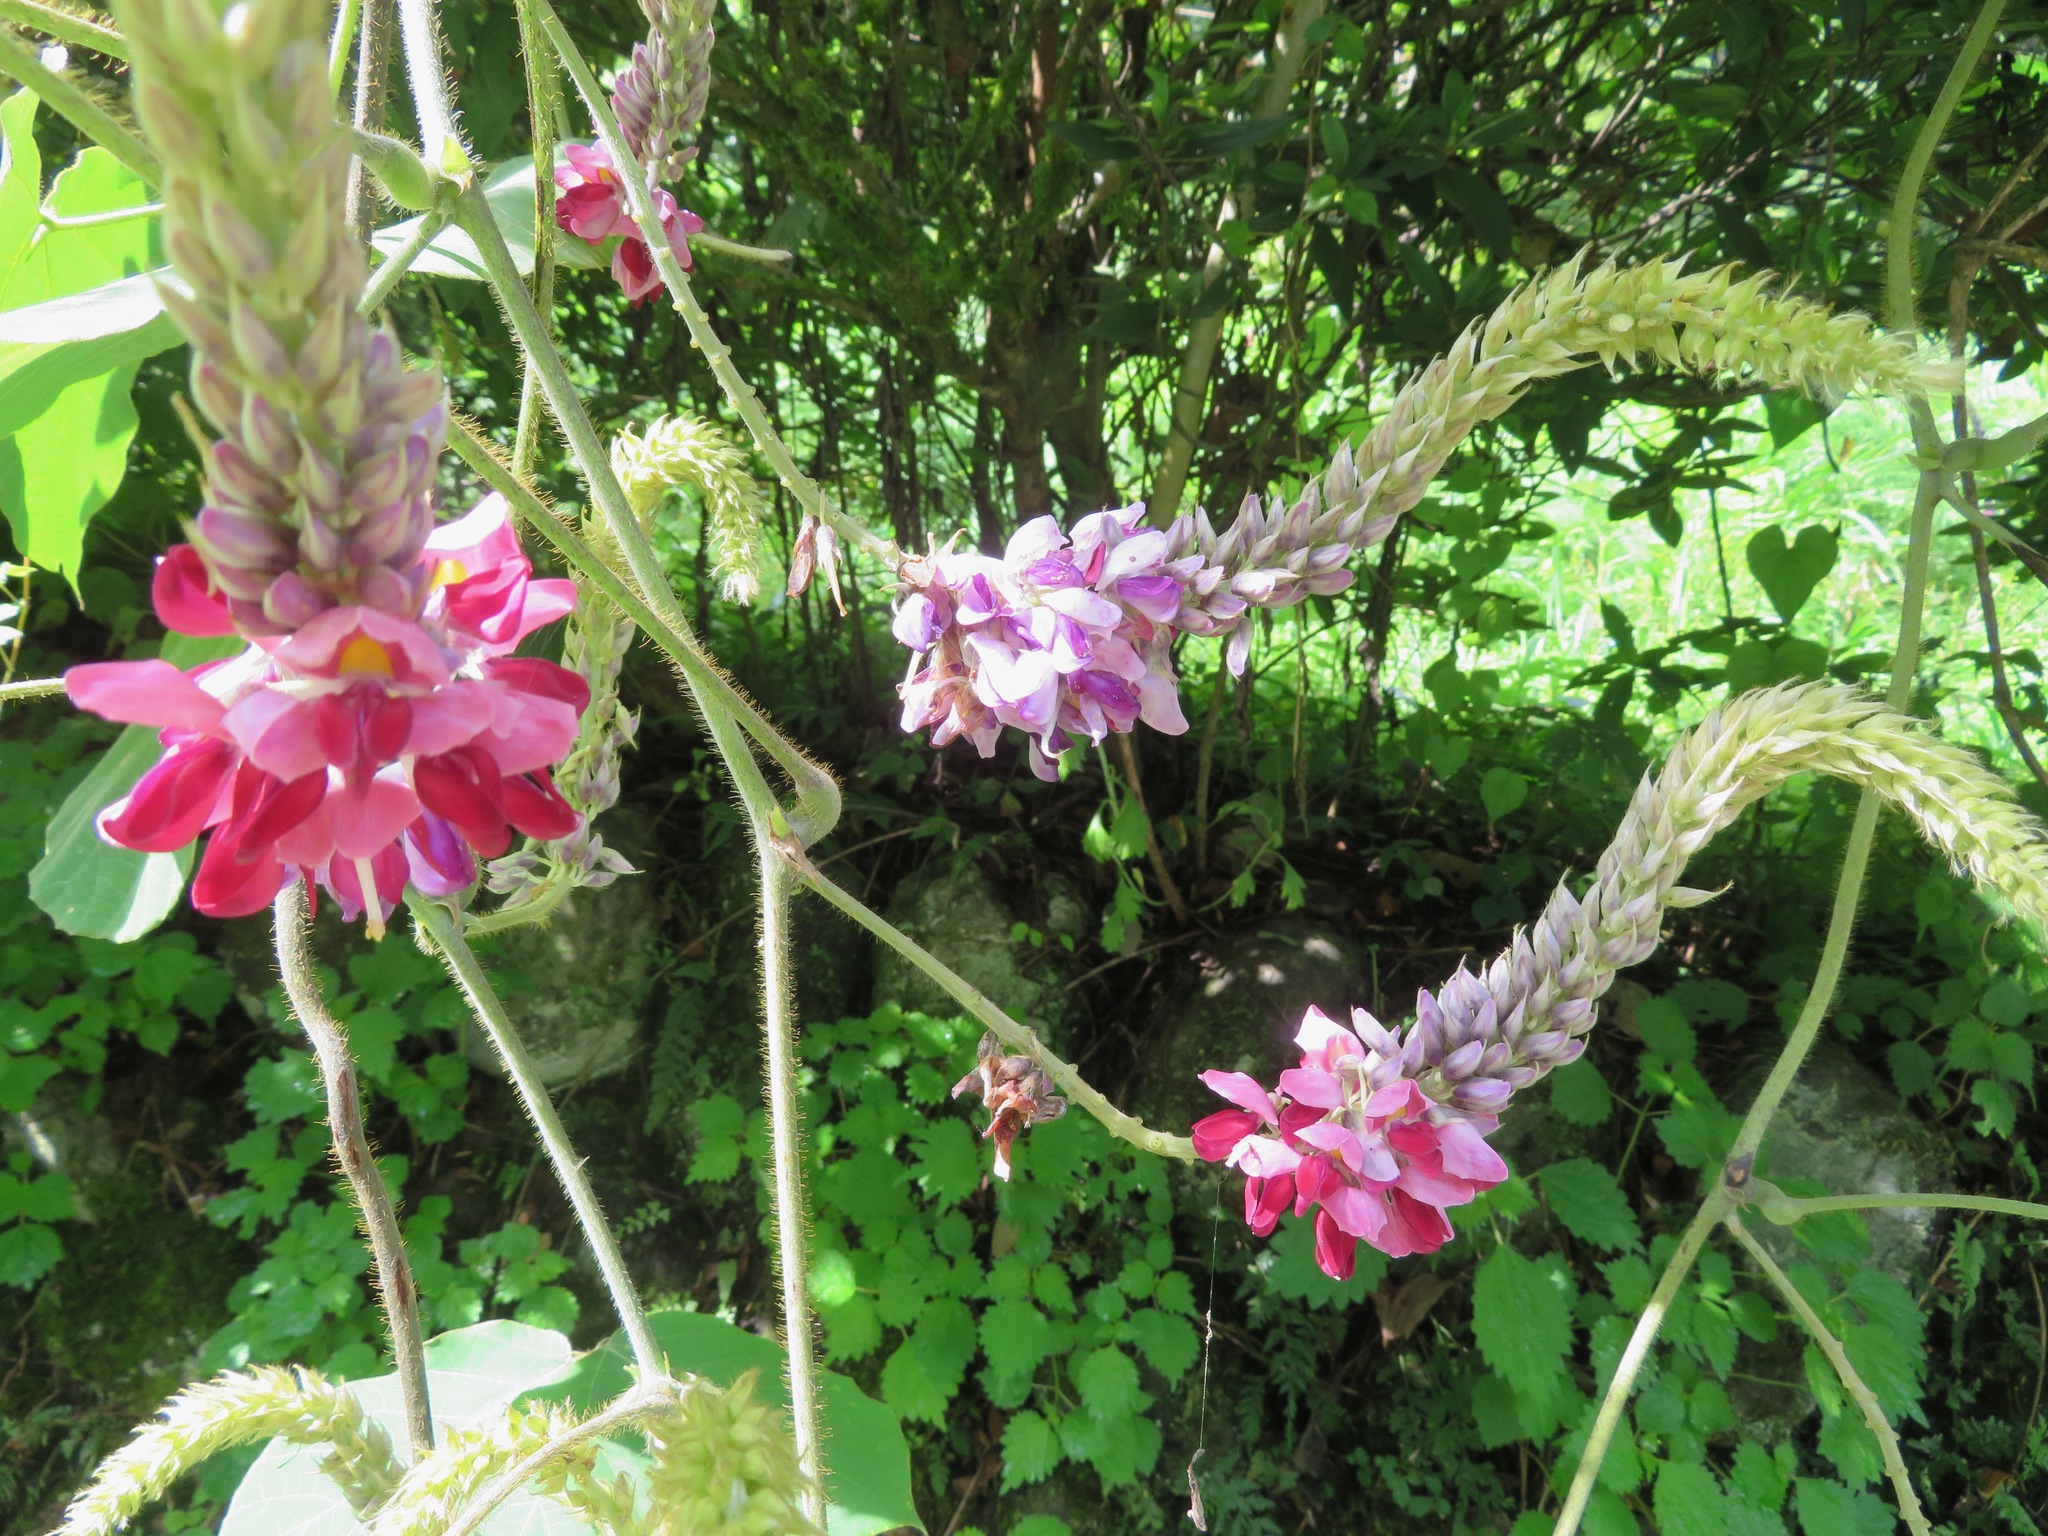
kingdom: Plantae
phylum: Tracheophyta
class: Magnoliopsida
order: Fabales
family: Fabaceae
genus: Pueraria
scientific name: Pueraria montana
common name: Kudzu
